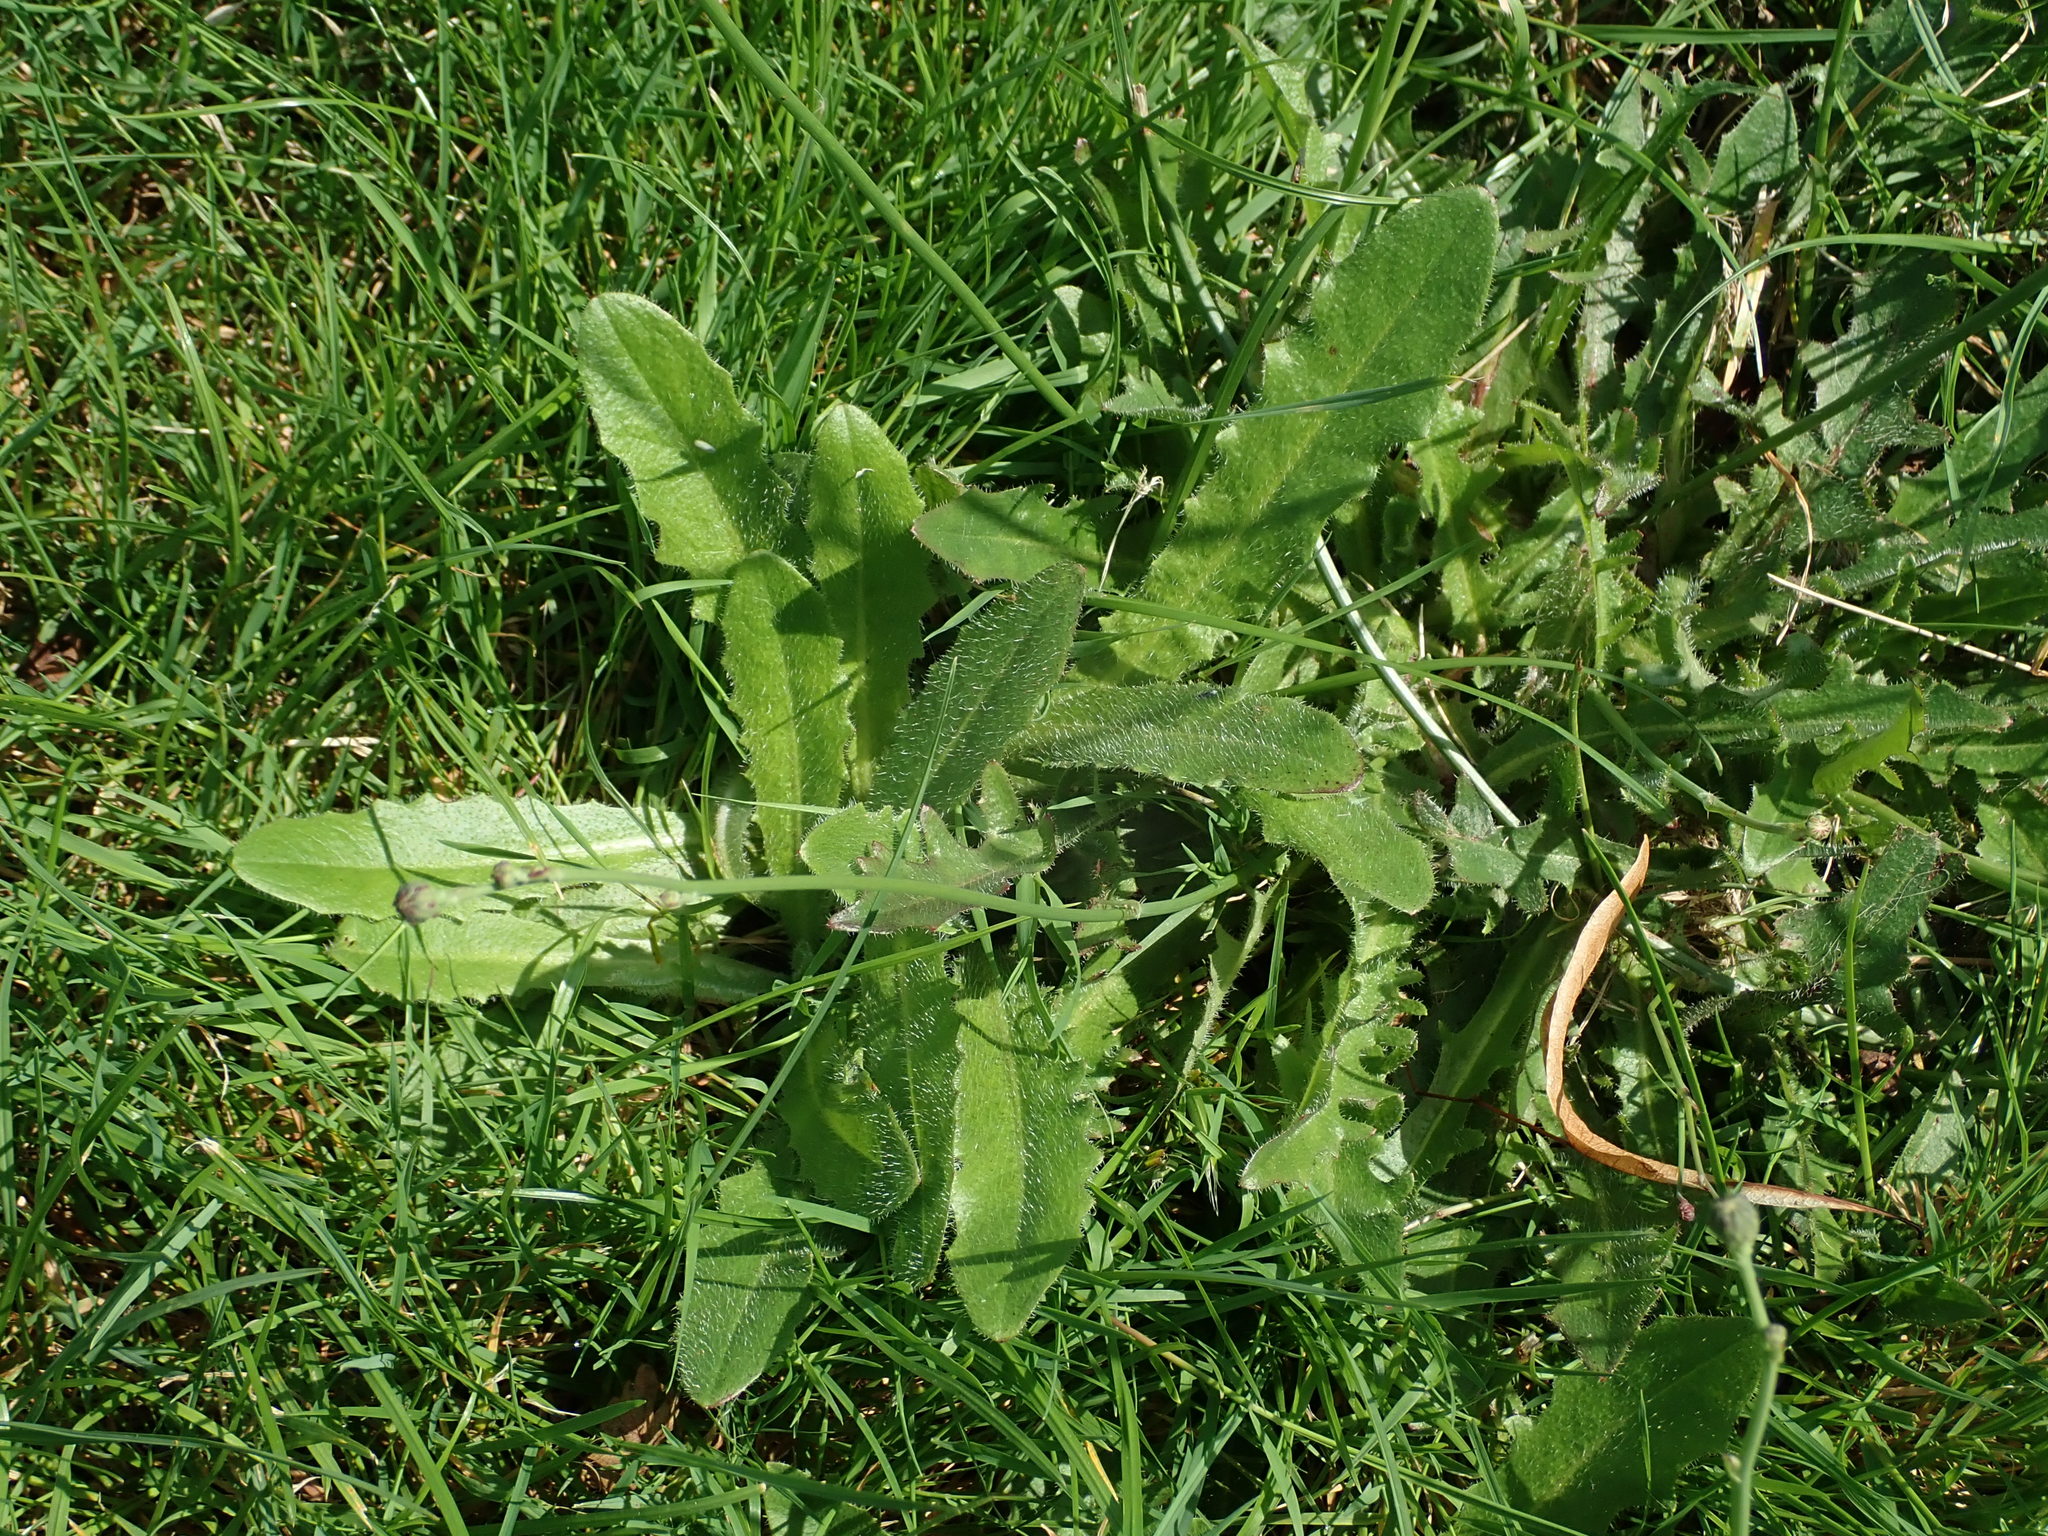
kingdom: Plantae
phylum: Tracheophyta
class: Magnoliopsida
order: Asterales
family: Asteraceae
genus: Hypochaeris
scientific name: Hypochaeris radicata
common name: Flatweed
